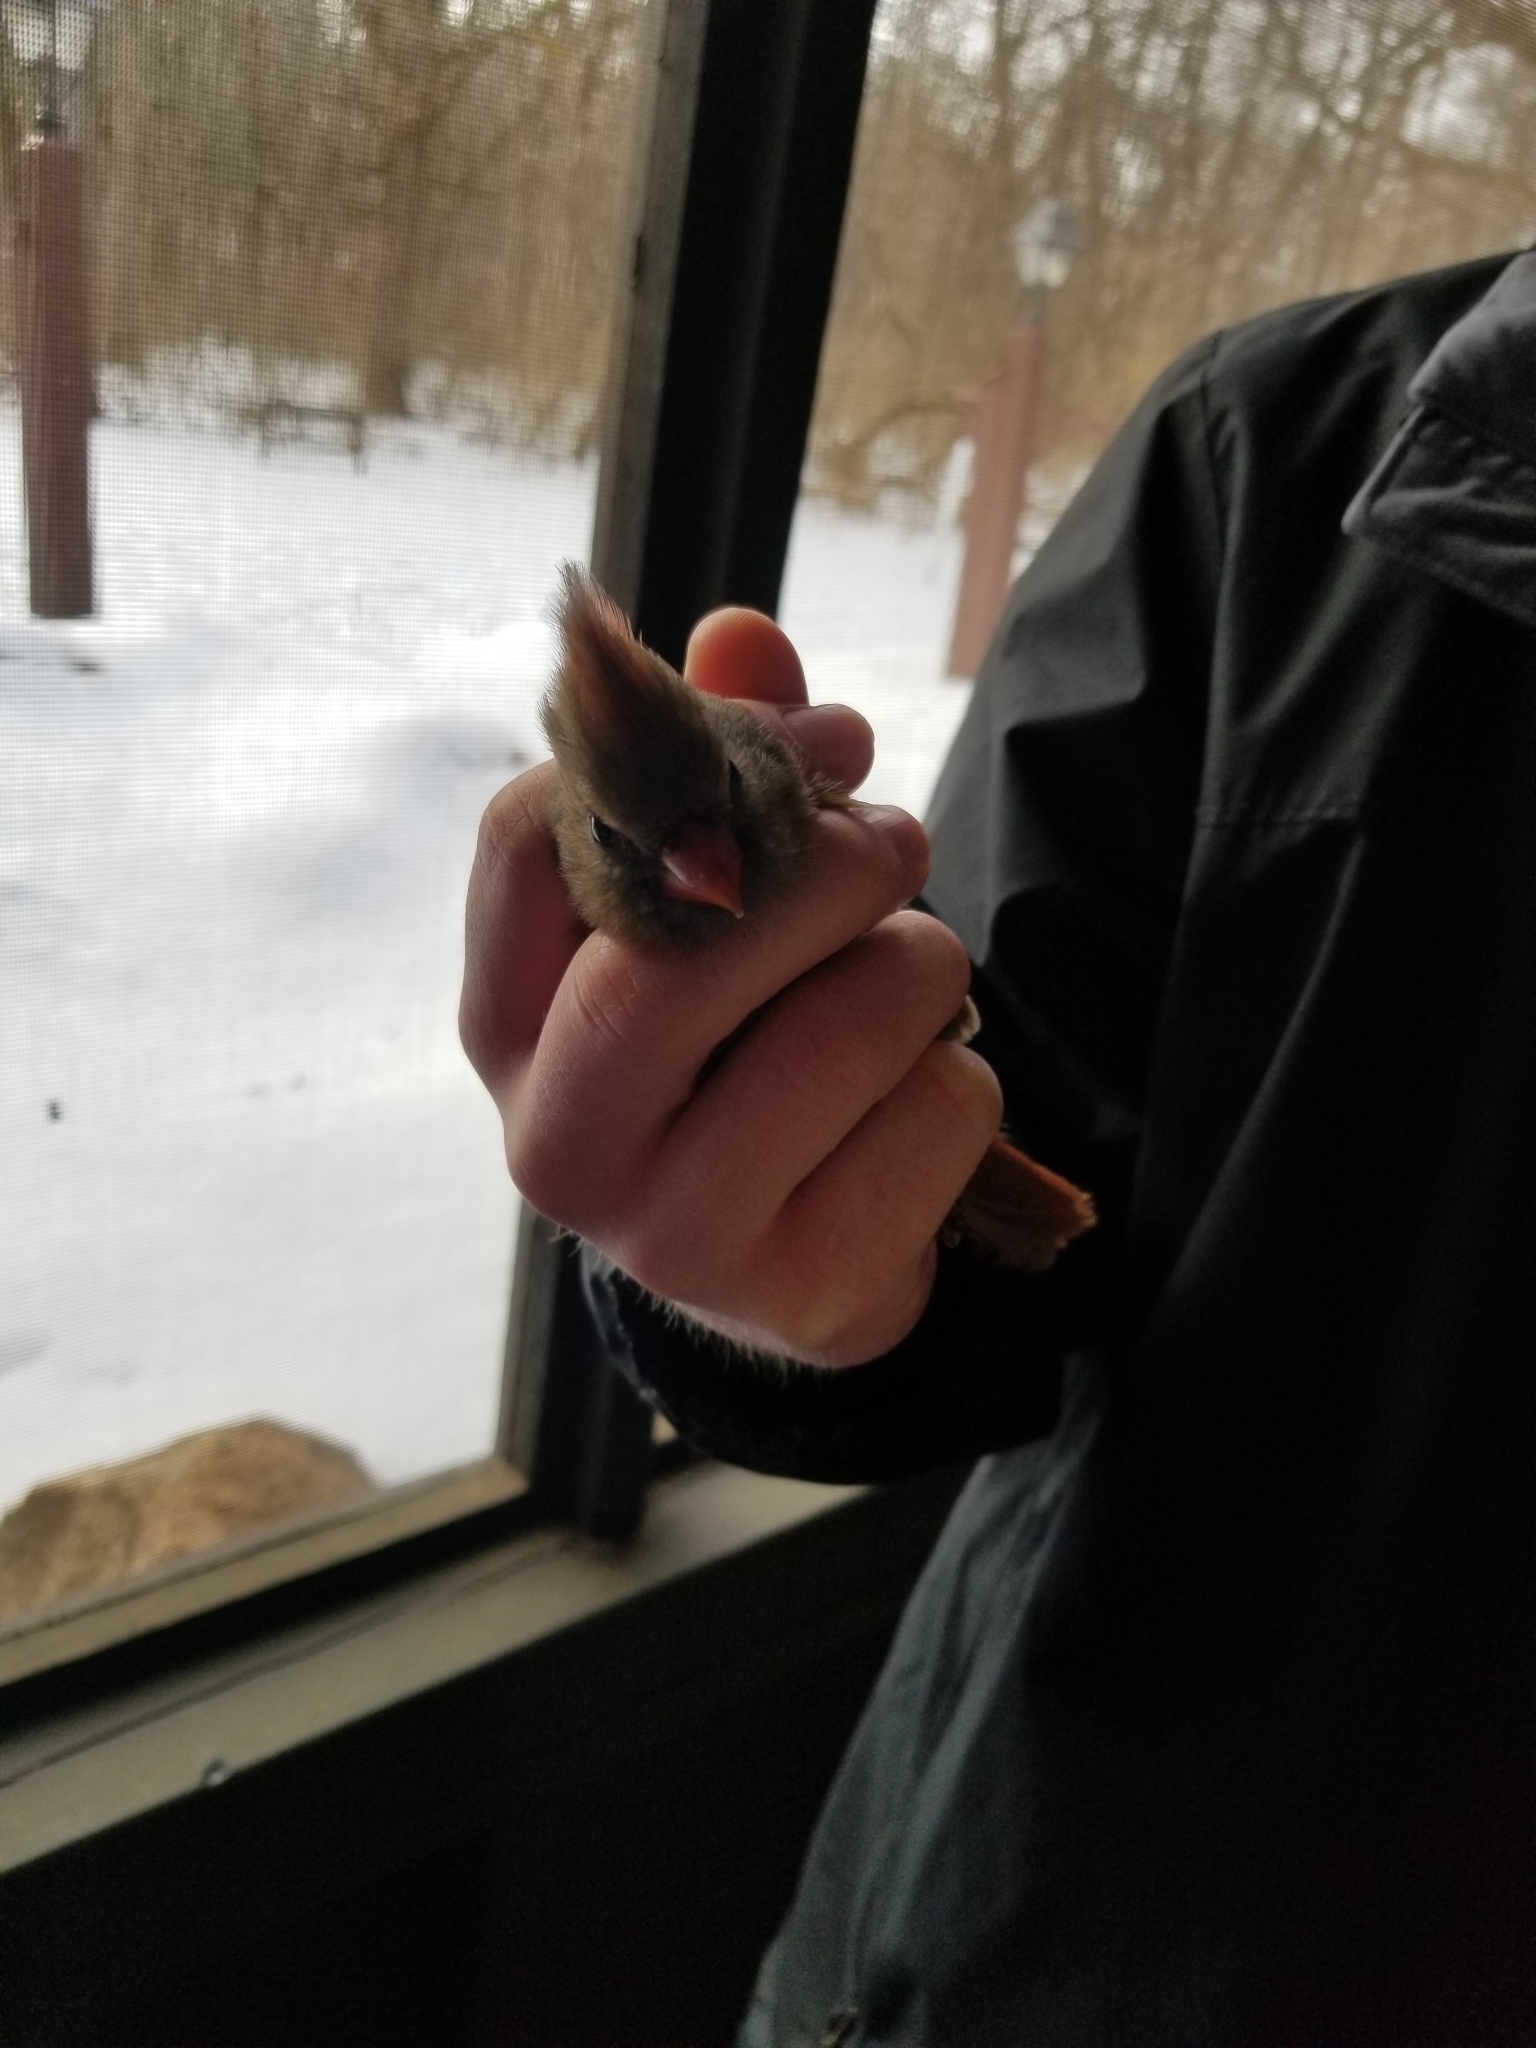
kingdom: Animalia
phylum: Chordata
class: Aves
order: Passeriformes
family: Cardinalidae
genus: Cardinalis
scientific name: Cardinalis cardinalis
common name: Northern cardinal
